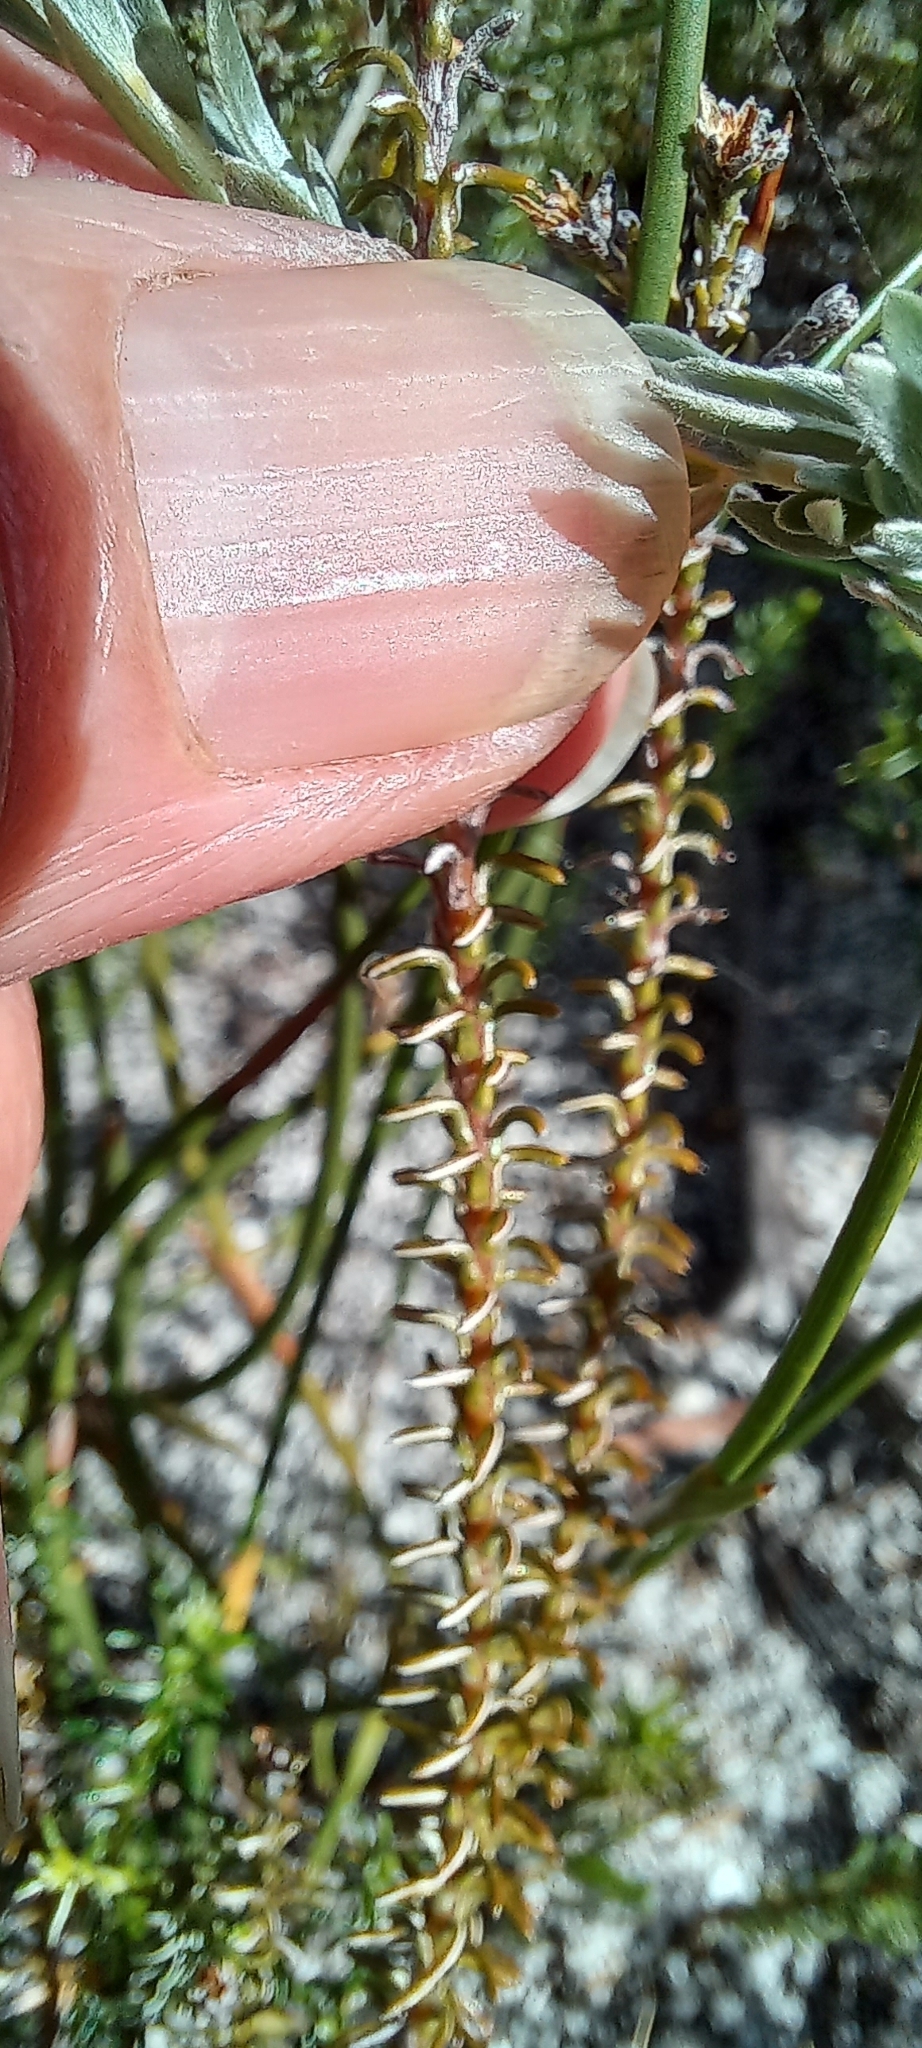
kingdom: Plantae
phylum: Tracheophyta
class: Magnoliopsida
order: Asterales
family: Asteraceae
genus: Disparago
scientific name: Disparago ericoides
